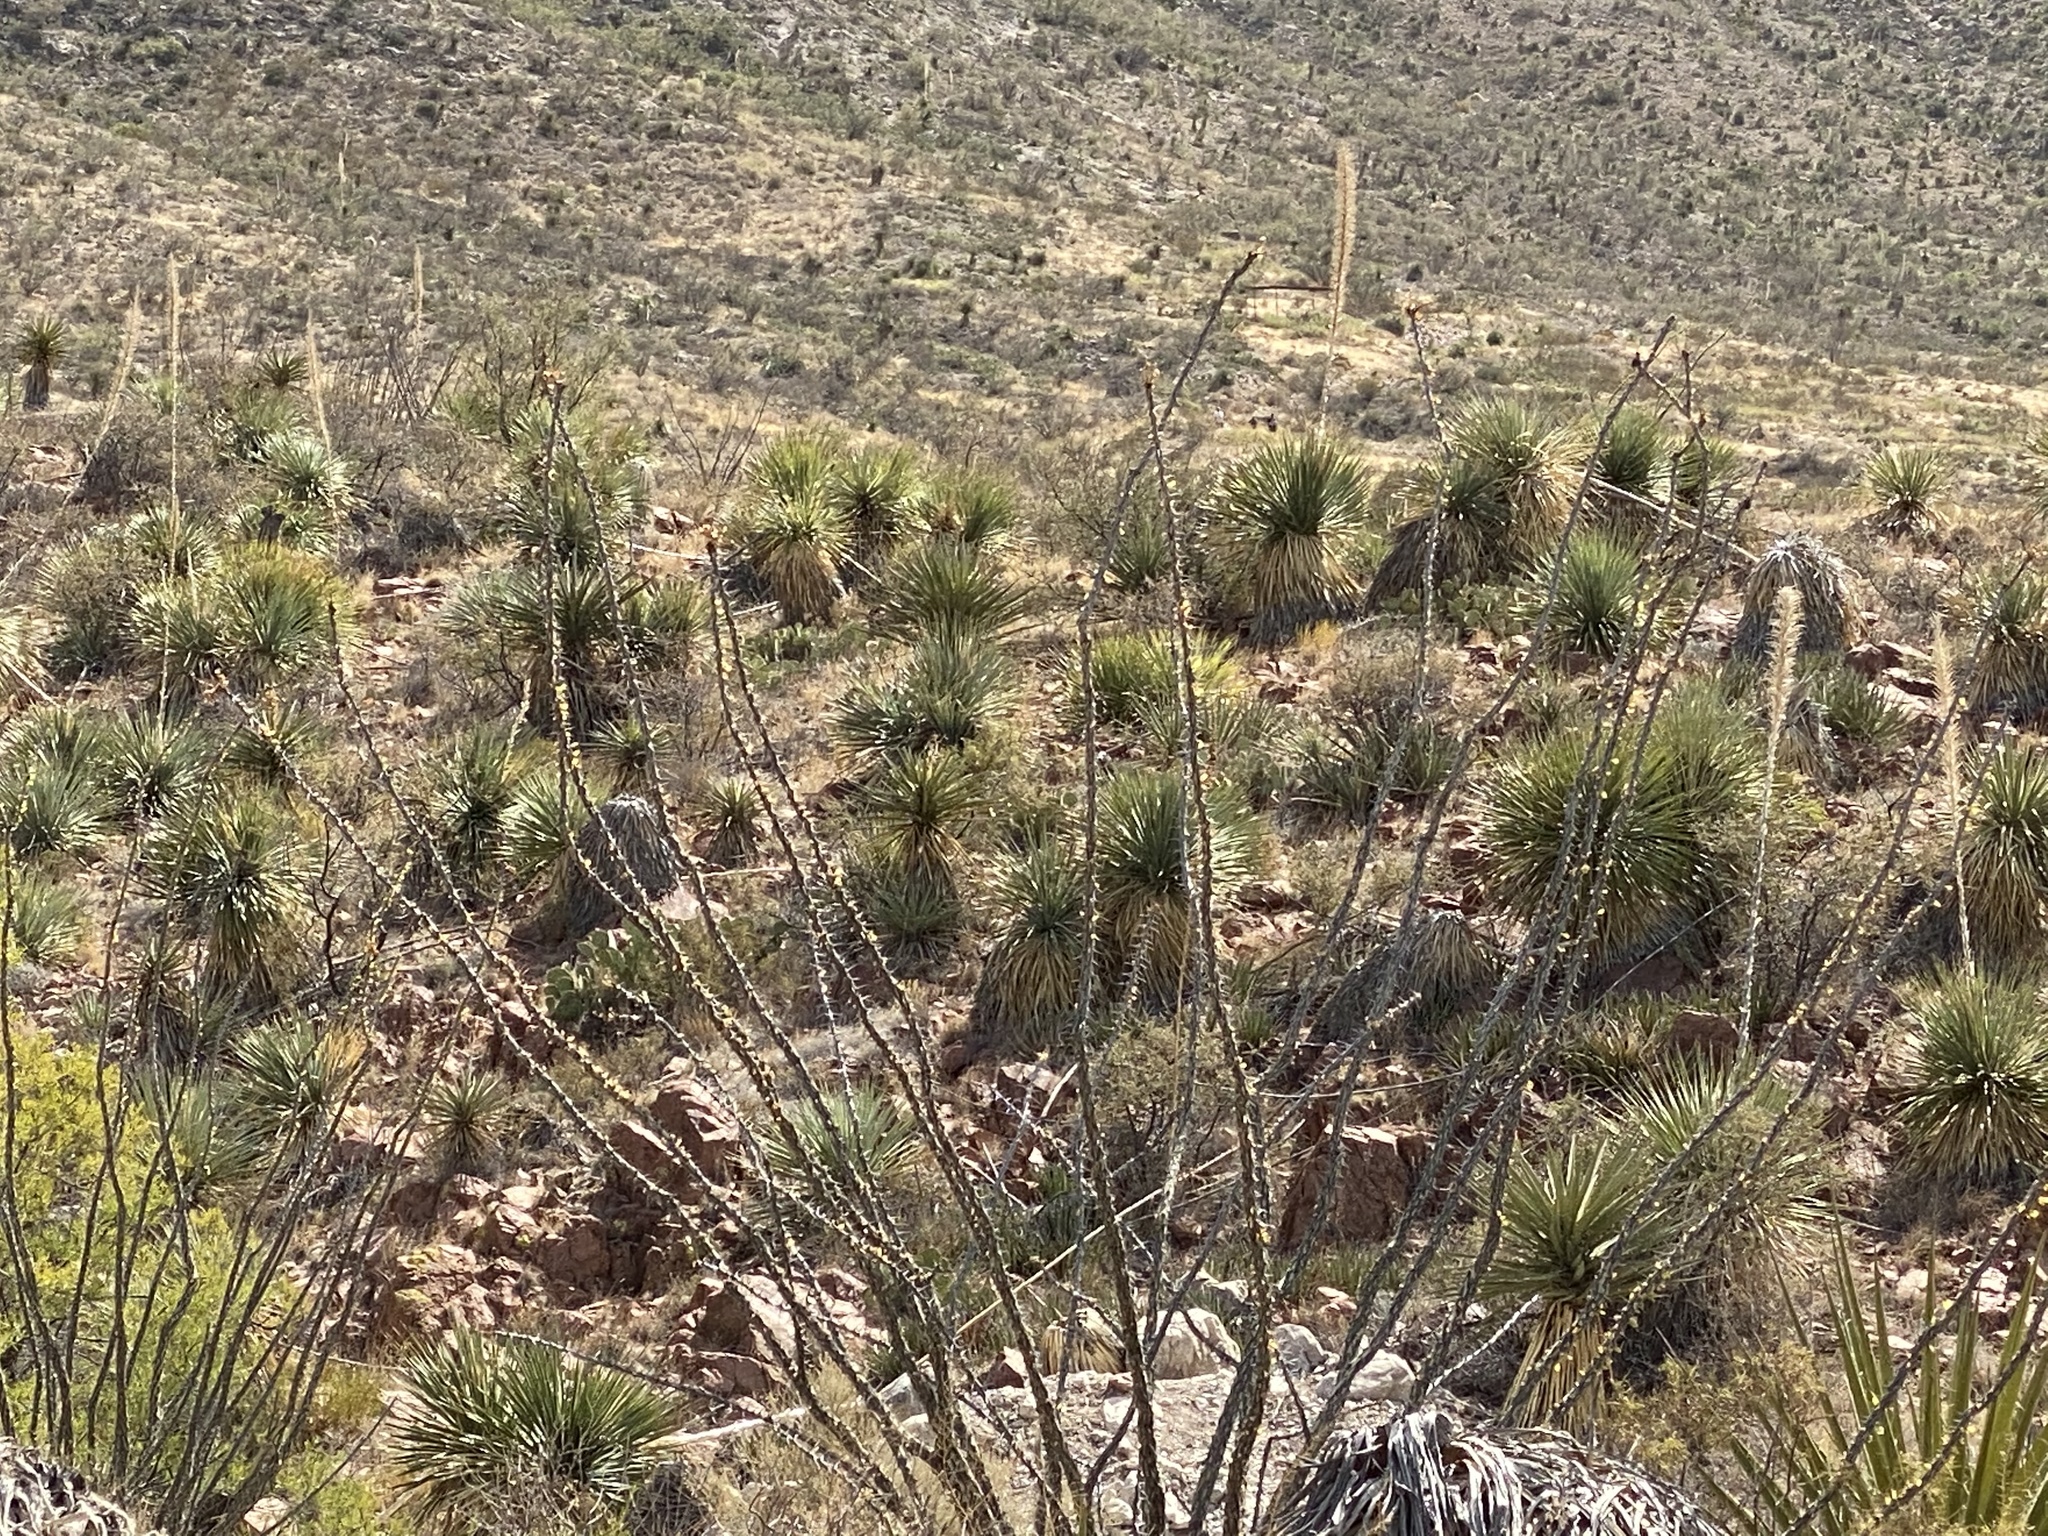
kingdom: Plantae
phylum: Tracheophyta
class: Magnoliopsida
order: Ericales
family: Fouquieriaceae
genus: Fouquieria
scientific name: Fouquieria splendens
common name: Vine-cactus
